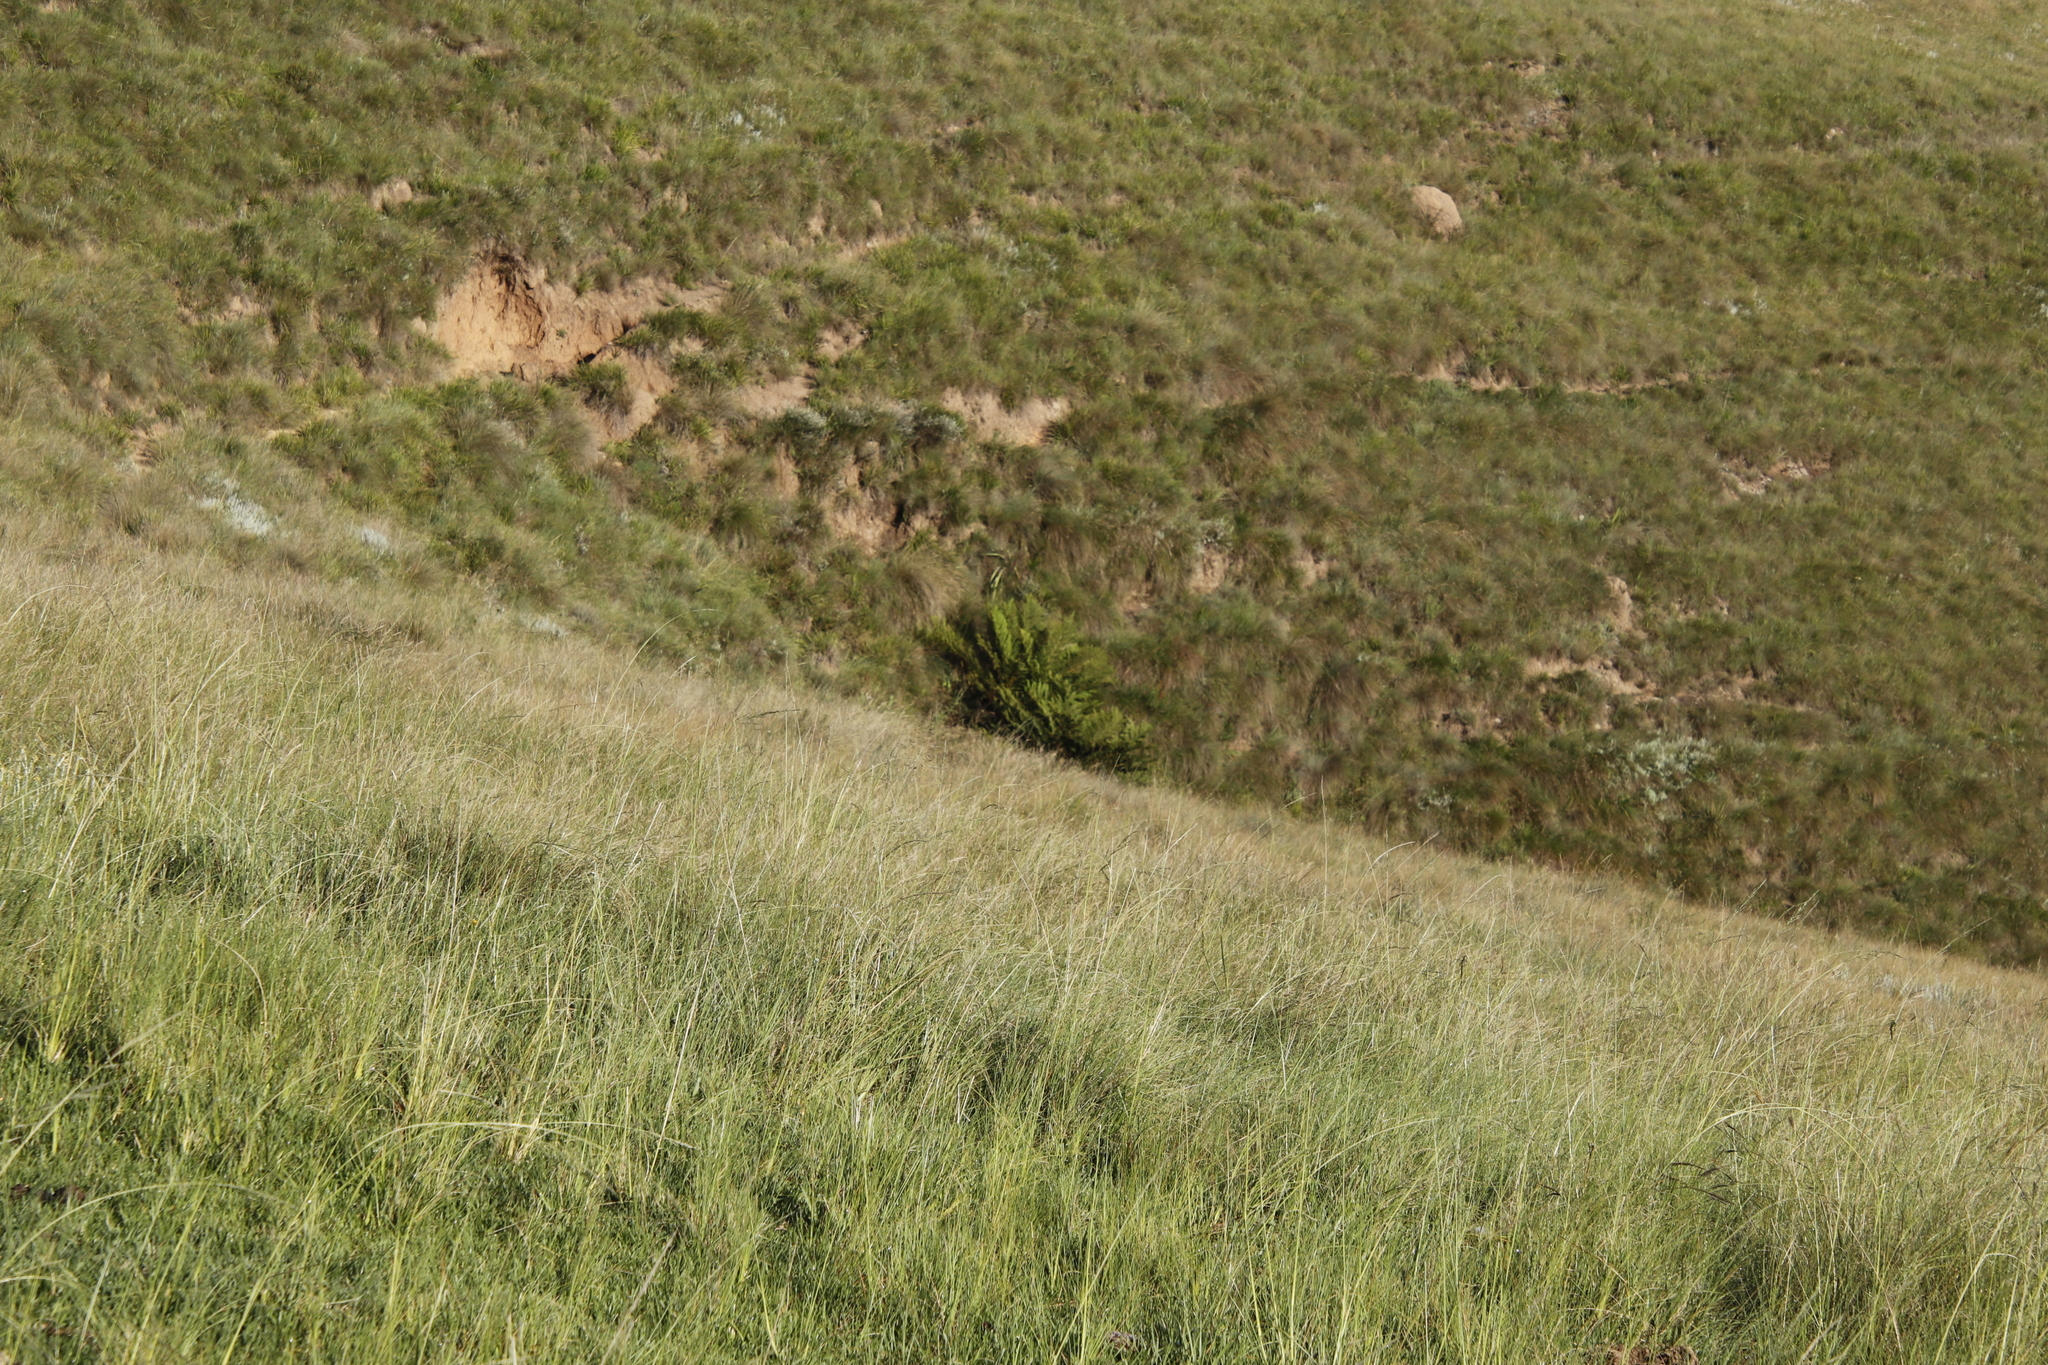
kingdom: Plantae
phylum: Tracheophyta
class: Polypodiopsida
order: Cyatheales
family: Cyatheaceae
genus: Alsophila
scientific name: Alsophila dregei
